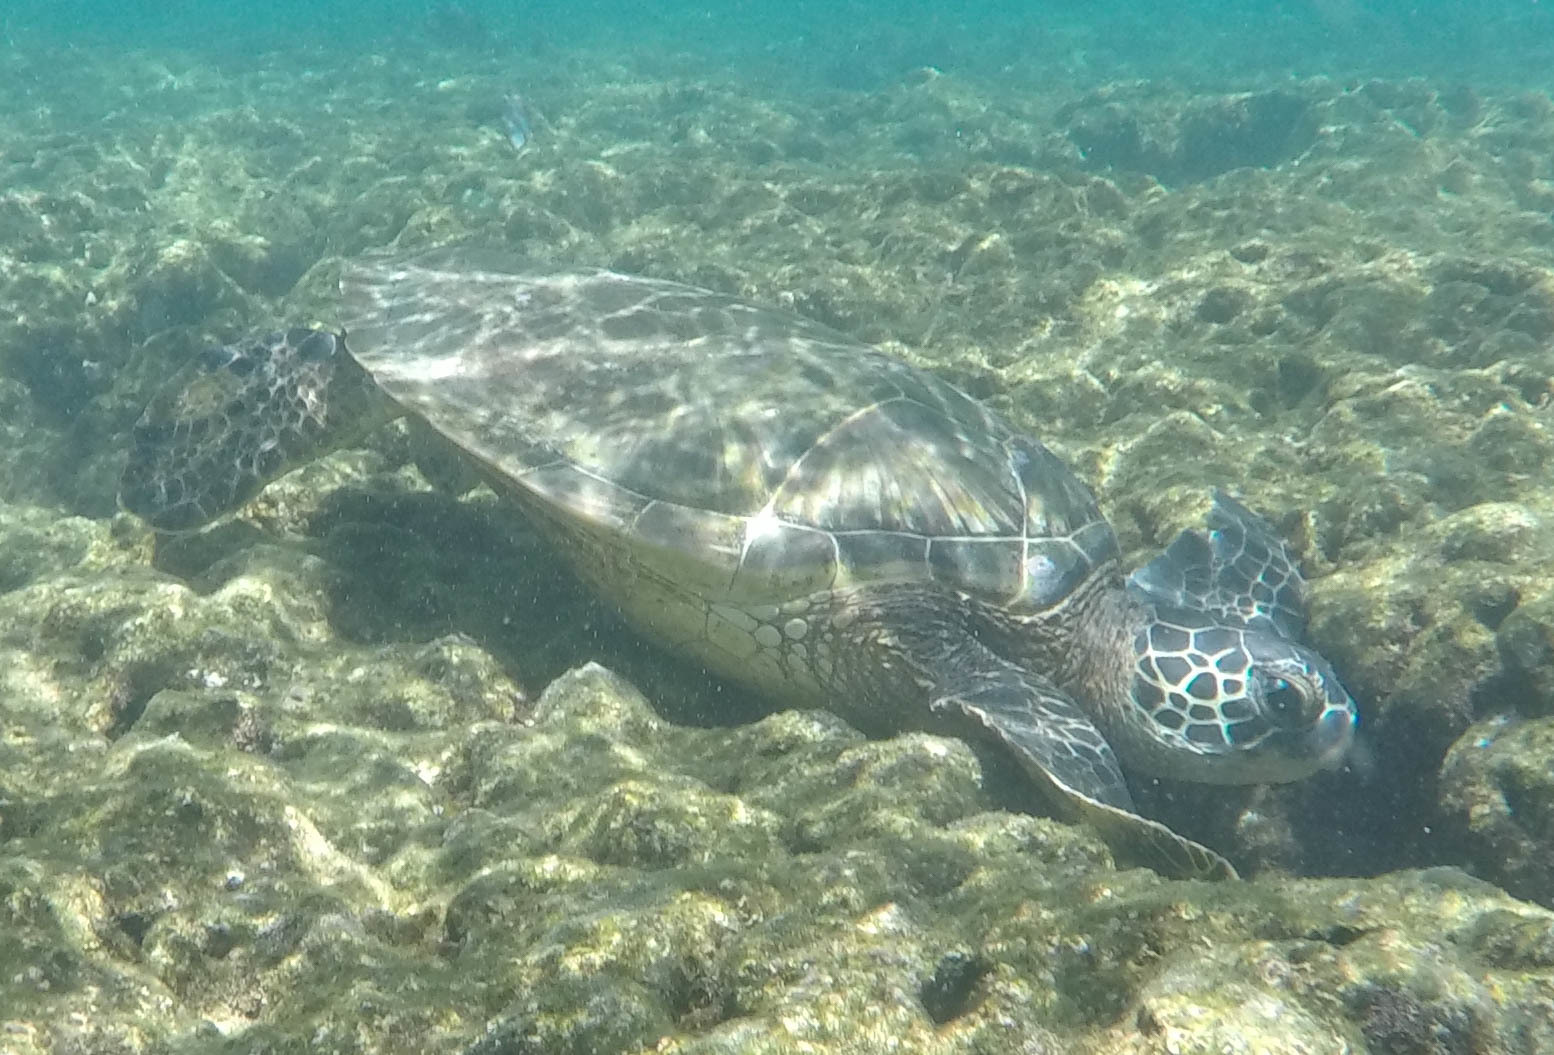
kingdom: Animalia
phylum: Chordata
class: Testudines
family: Cheloniidae
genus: Chelonia
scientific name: Chelonia mydas
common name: Green turtle
